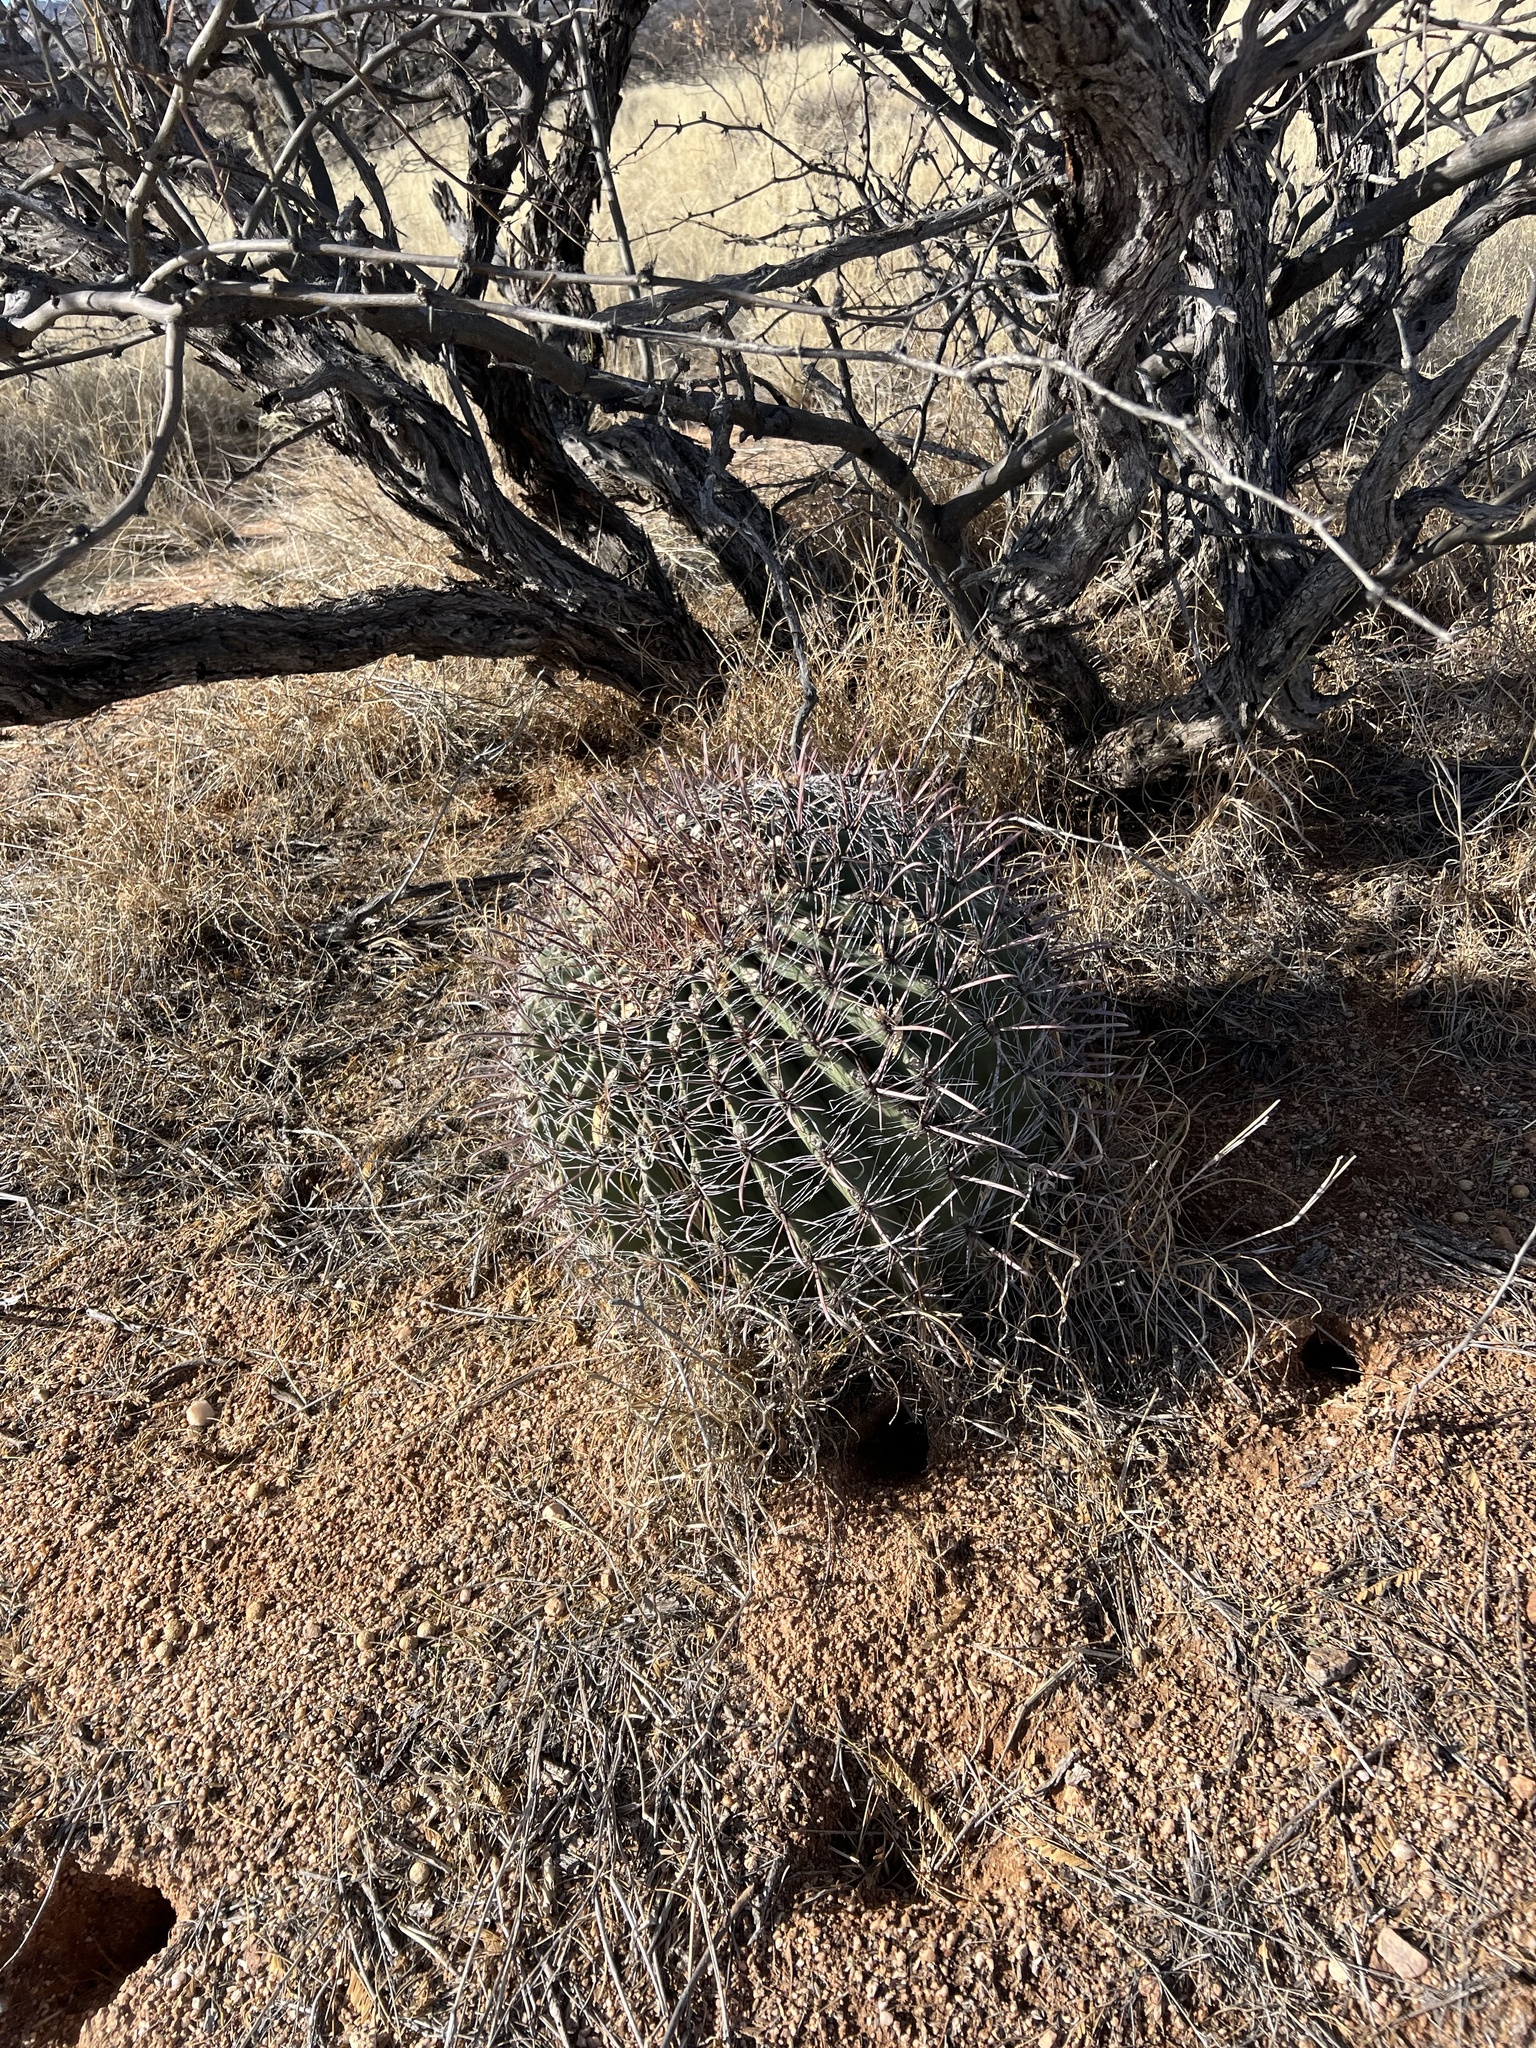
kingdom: Plantae
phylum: Tracheophyta
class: Magnoliopsida
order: Caryophyllales
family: Cactaceae
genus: Ferocactus
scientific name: Ferocactus wislizeni
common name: Candy barrel cactus
